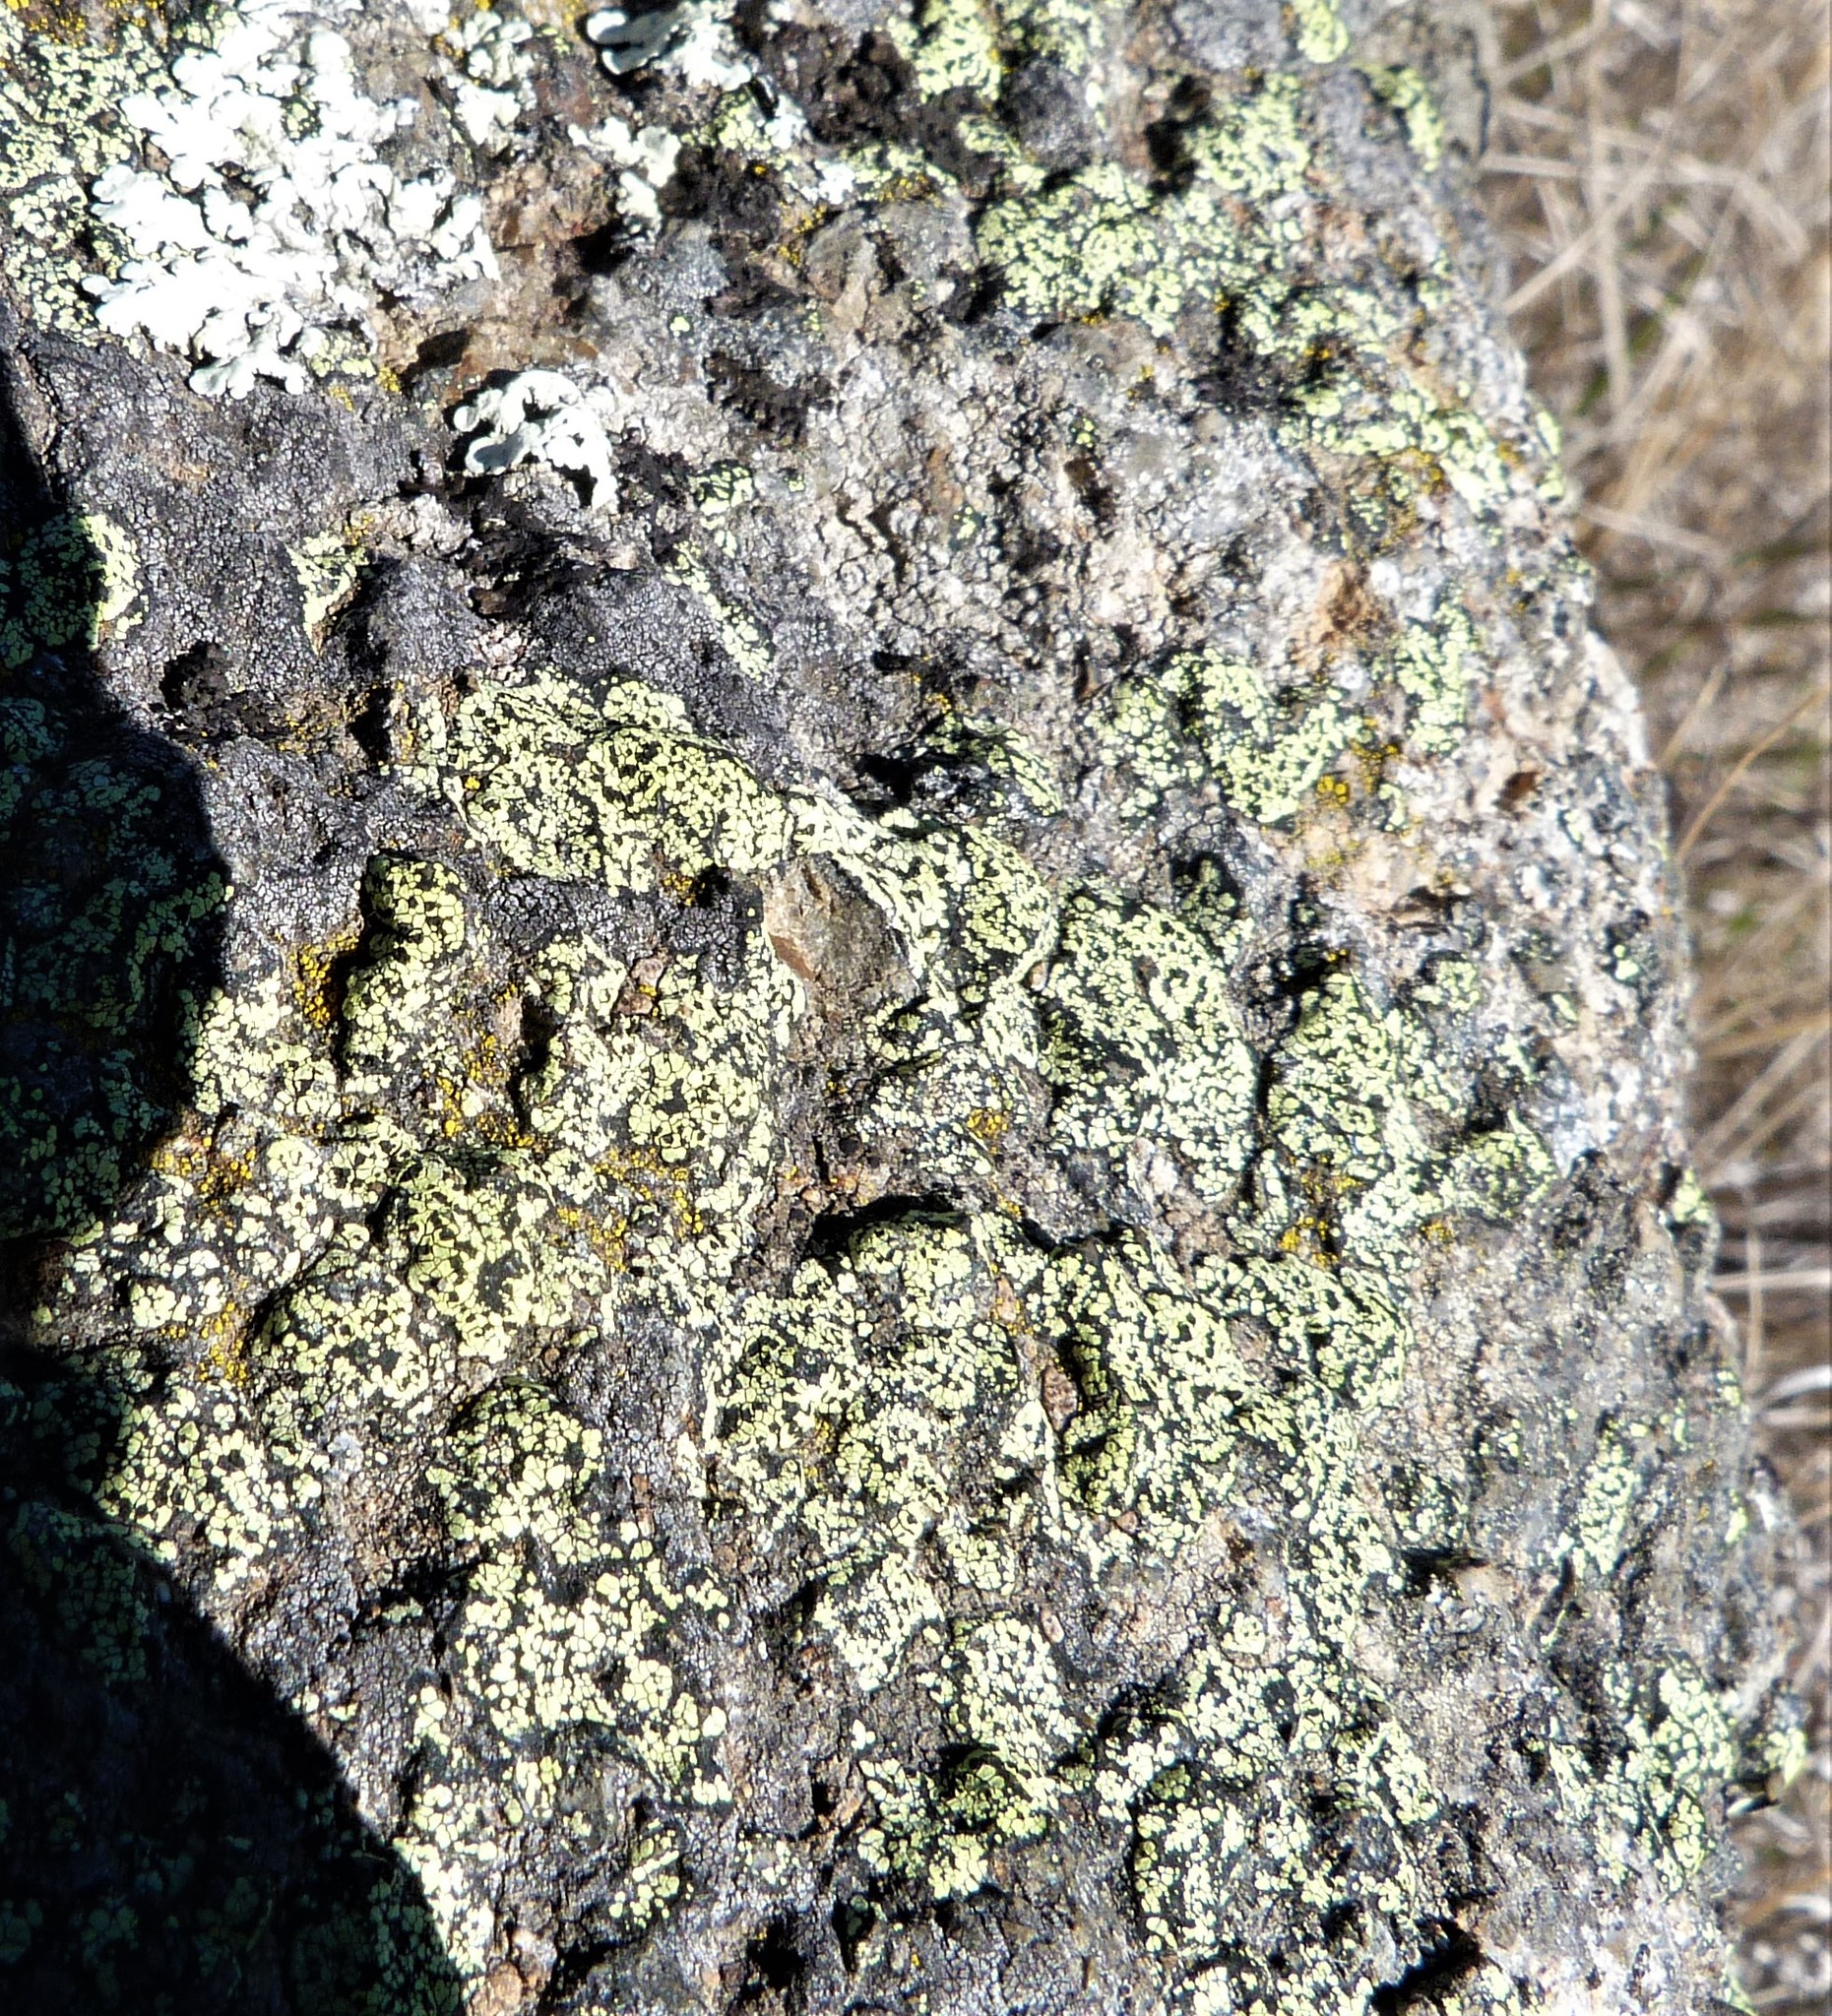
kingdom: Fungi
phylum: Ascomycota
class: Lecanoromycetes
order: Rhizocarpales
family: Rhizocarpaceae
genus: Rhizocarpon
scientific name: Rhizocarpon geographicum
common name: Yellow map lichen
